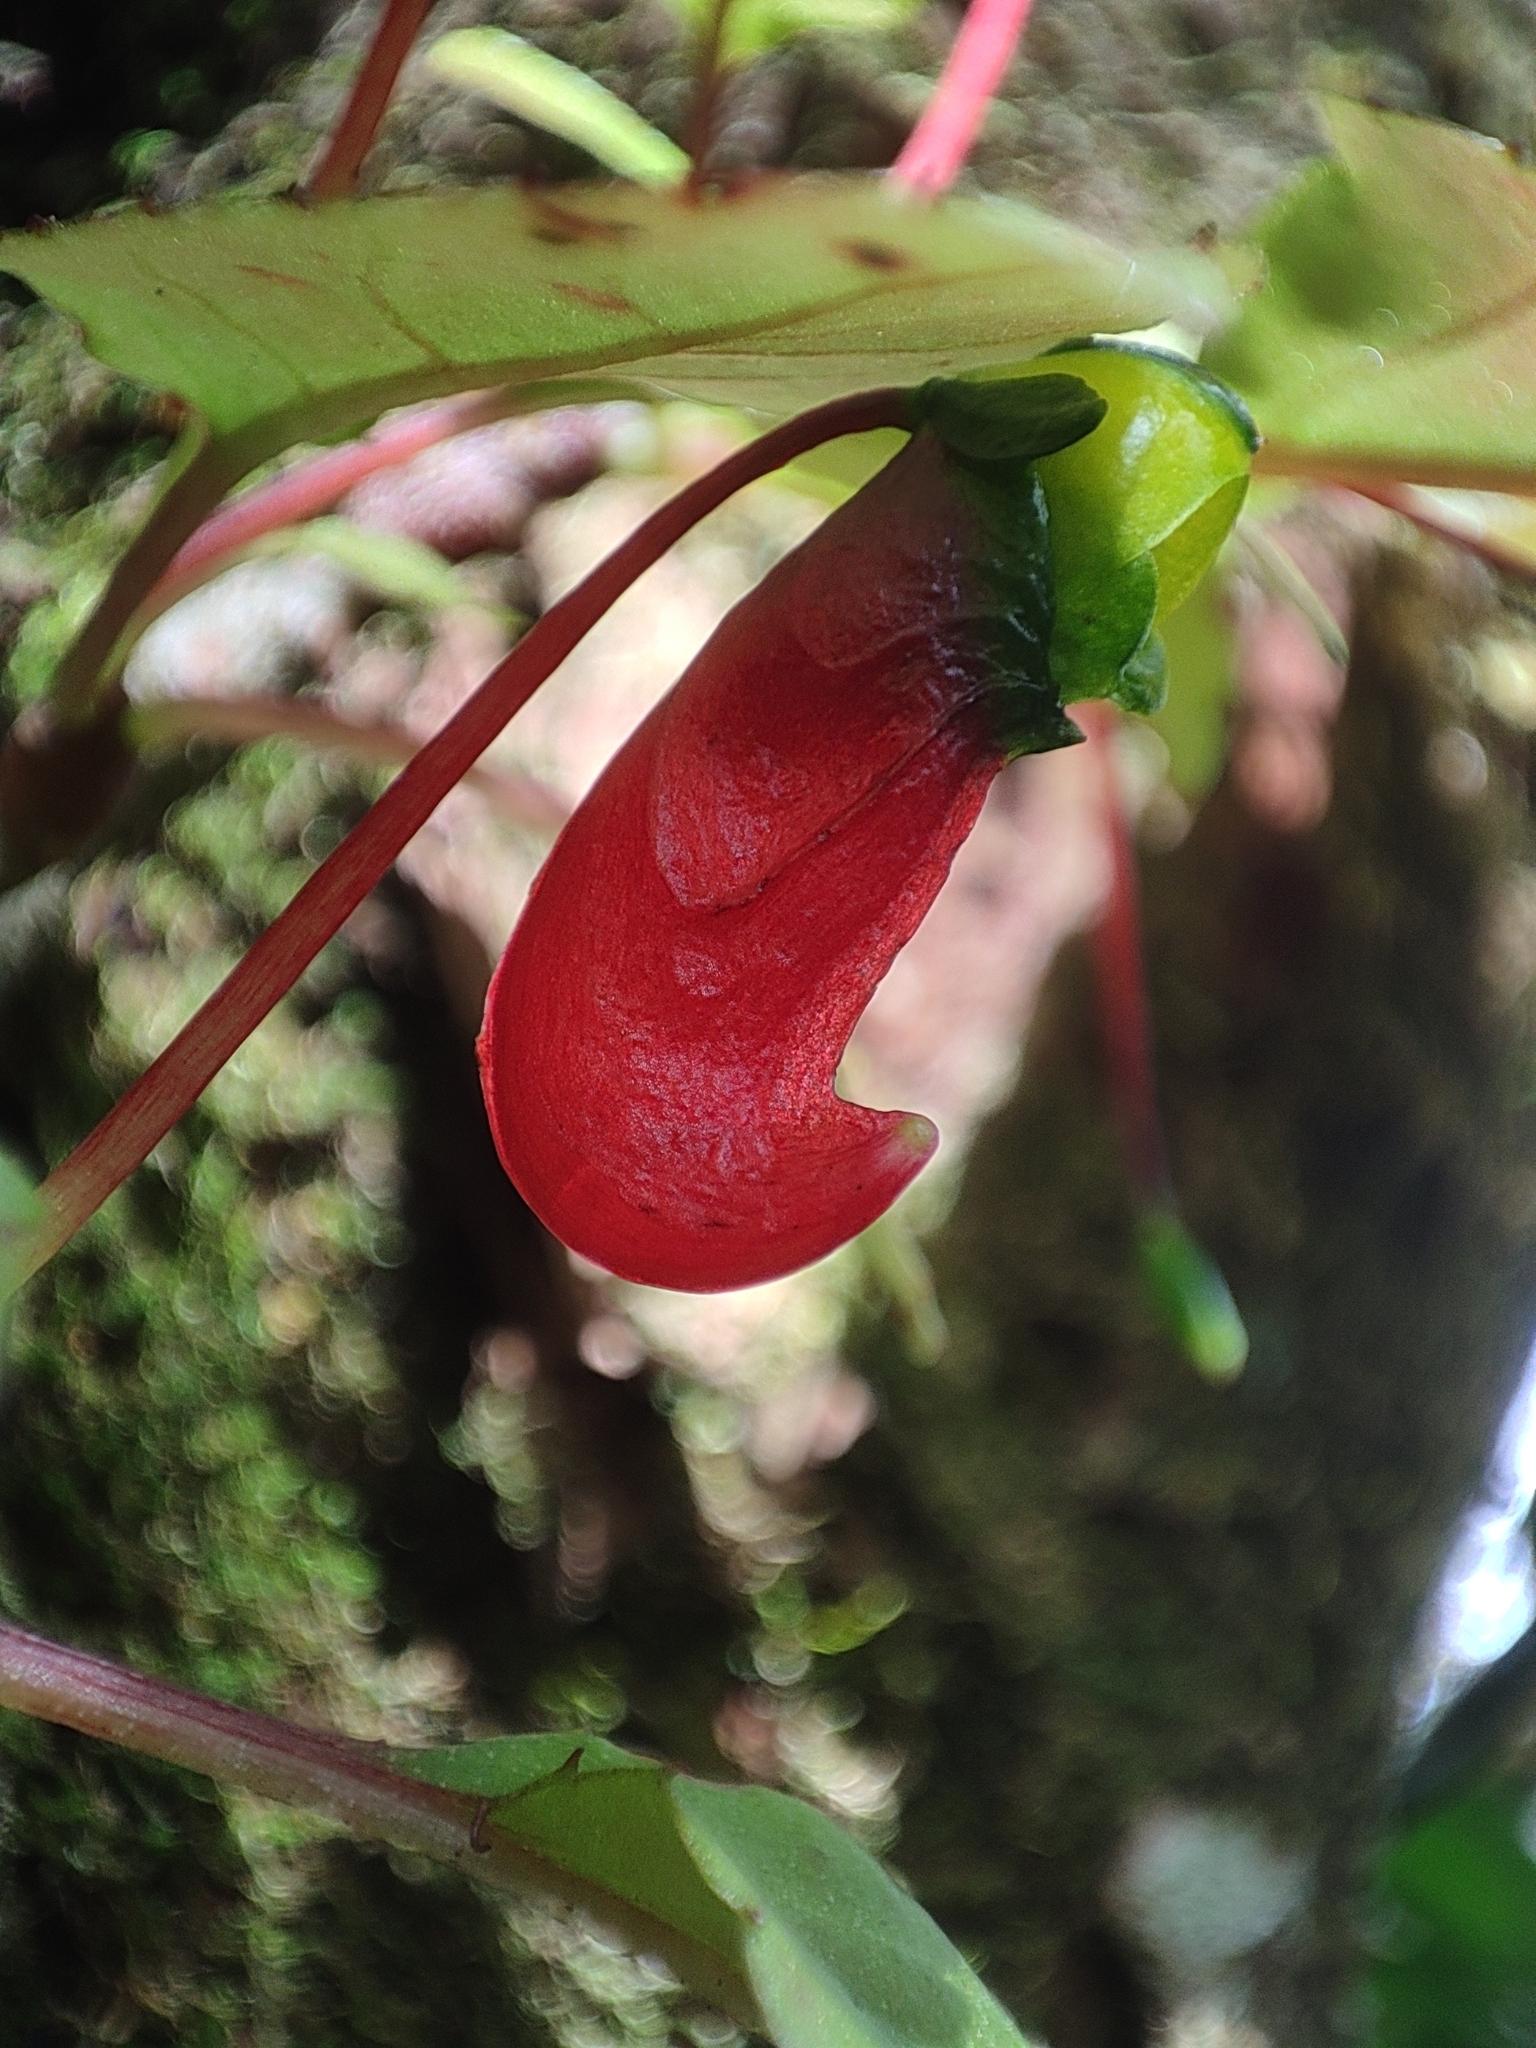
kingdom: Plantae
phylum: Tracheophyta
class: Magnoliopsida
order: Ericales
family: Balsaminaceae
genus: Impatiens
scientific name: Impatiens parasitica
